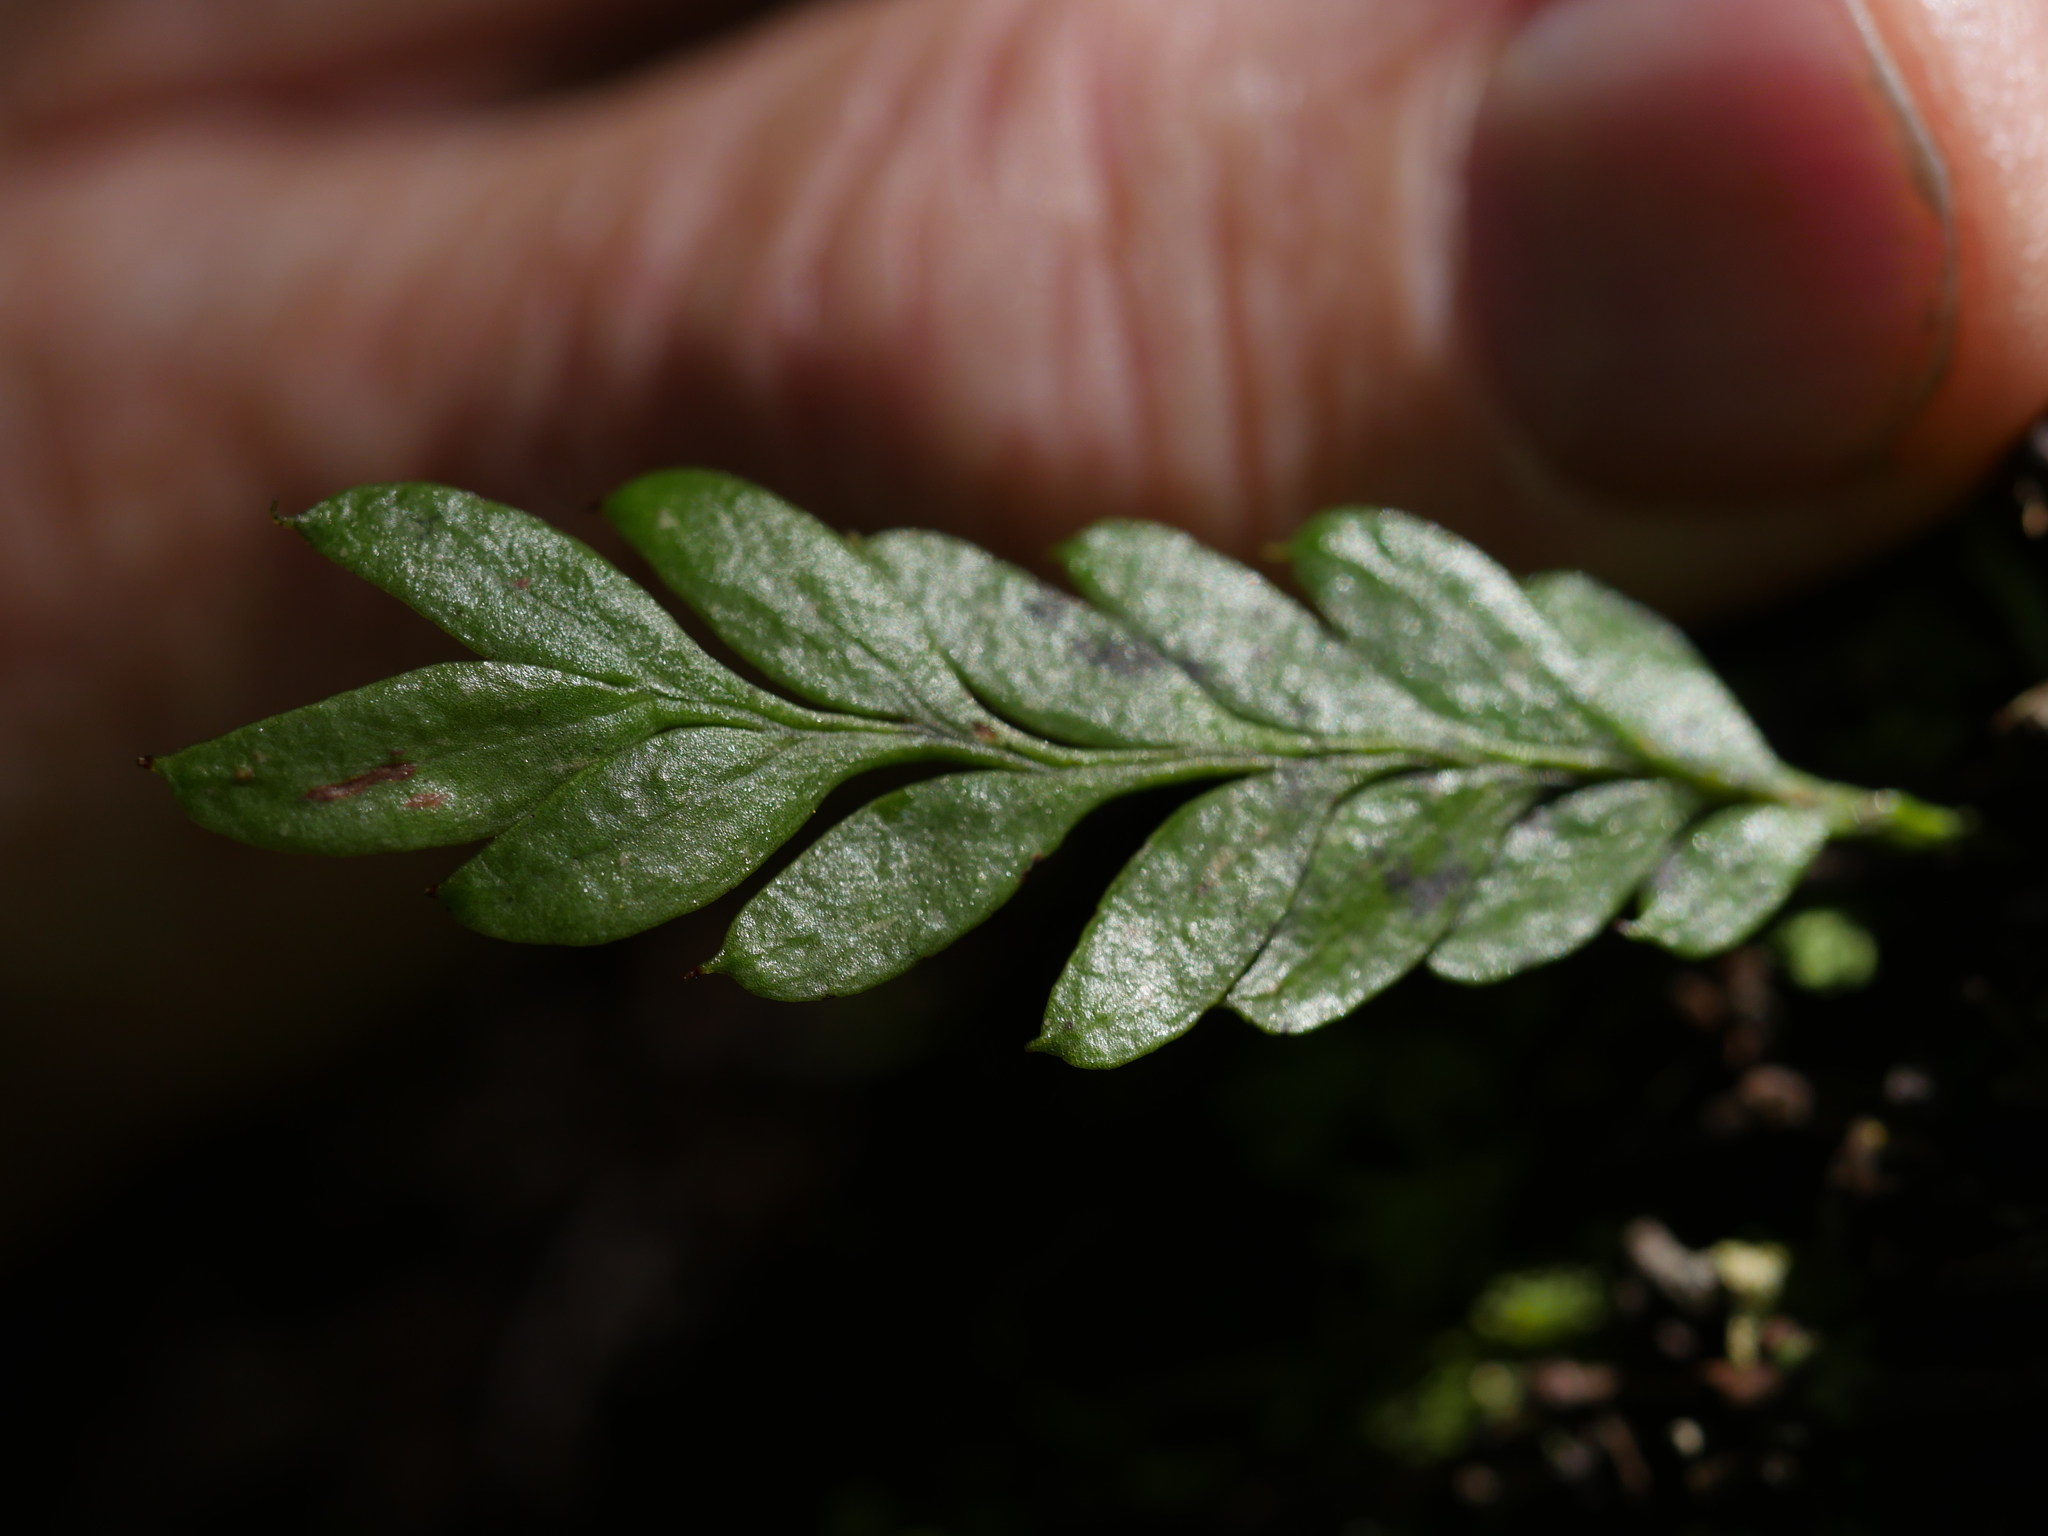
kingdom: Plantae
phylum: Tracheophyta
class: Polypodiopsida
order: Psilotales
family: Psilotaceae
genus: Tmesipteris
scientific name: Tmesipteris lanceolata
